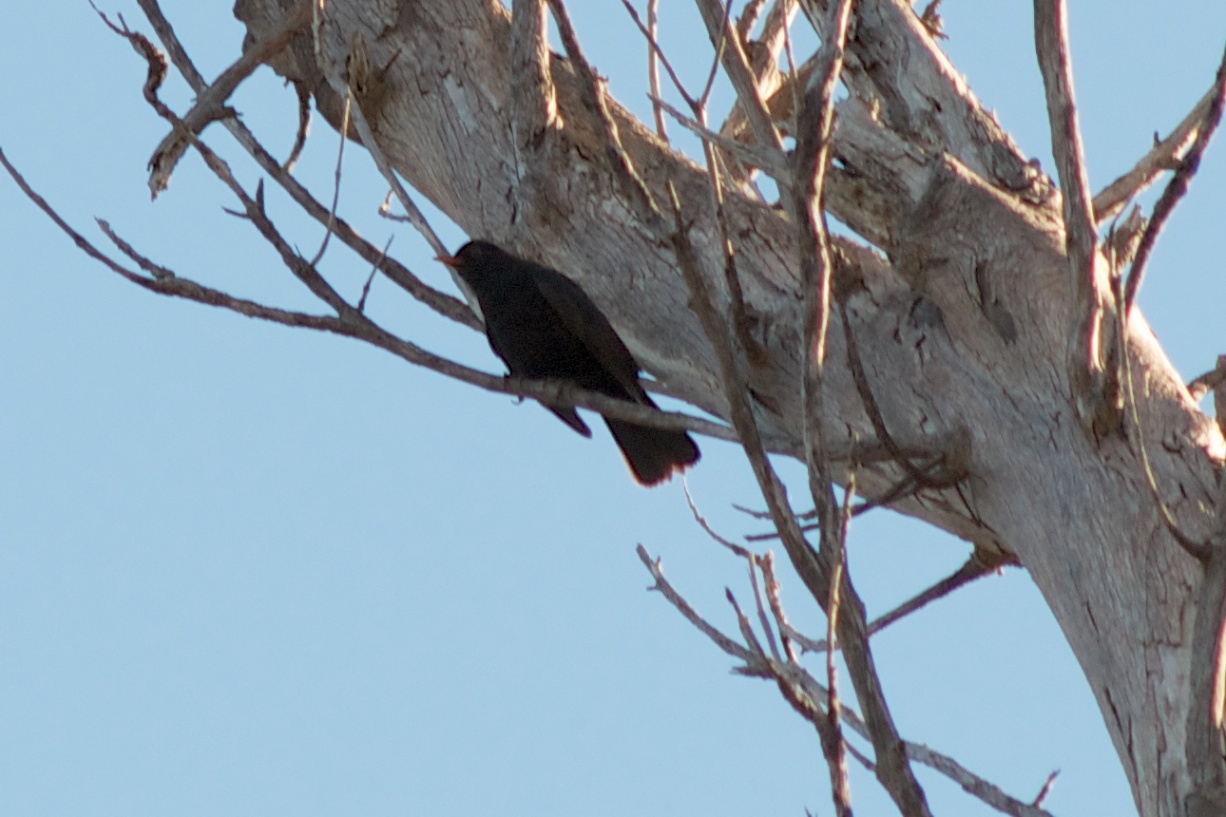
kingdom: Animalia
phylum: Chordata
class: Aves
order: Passeriformes
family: Turdidae
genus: Turdus
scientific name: Turdus merula
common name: Common blackbird
